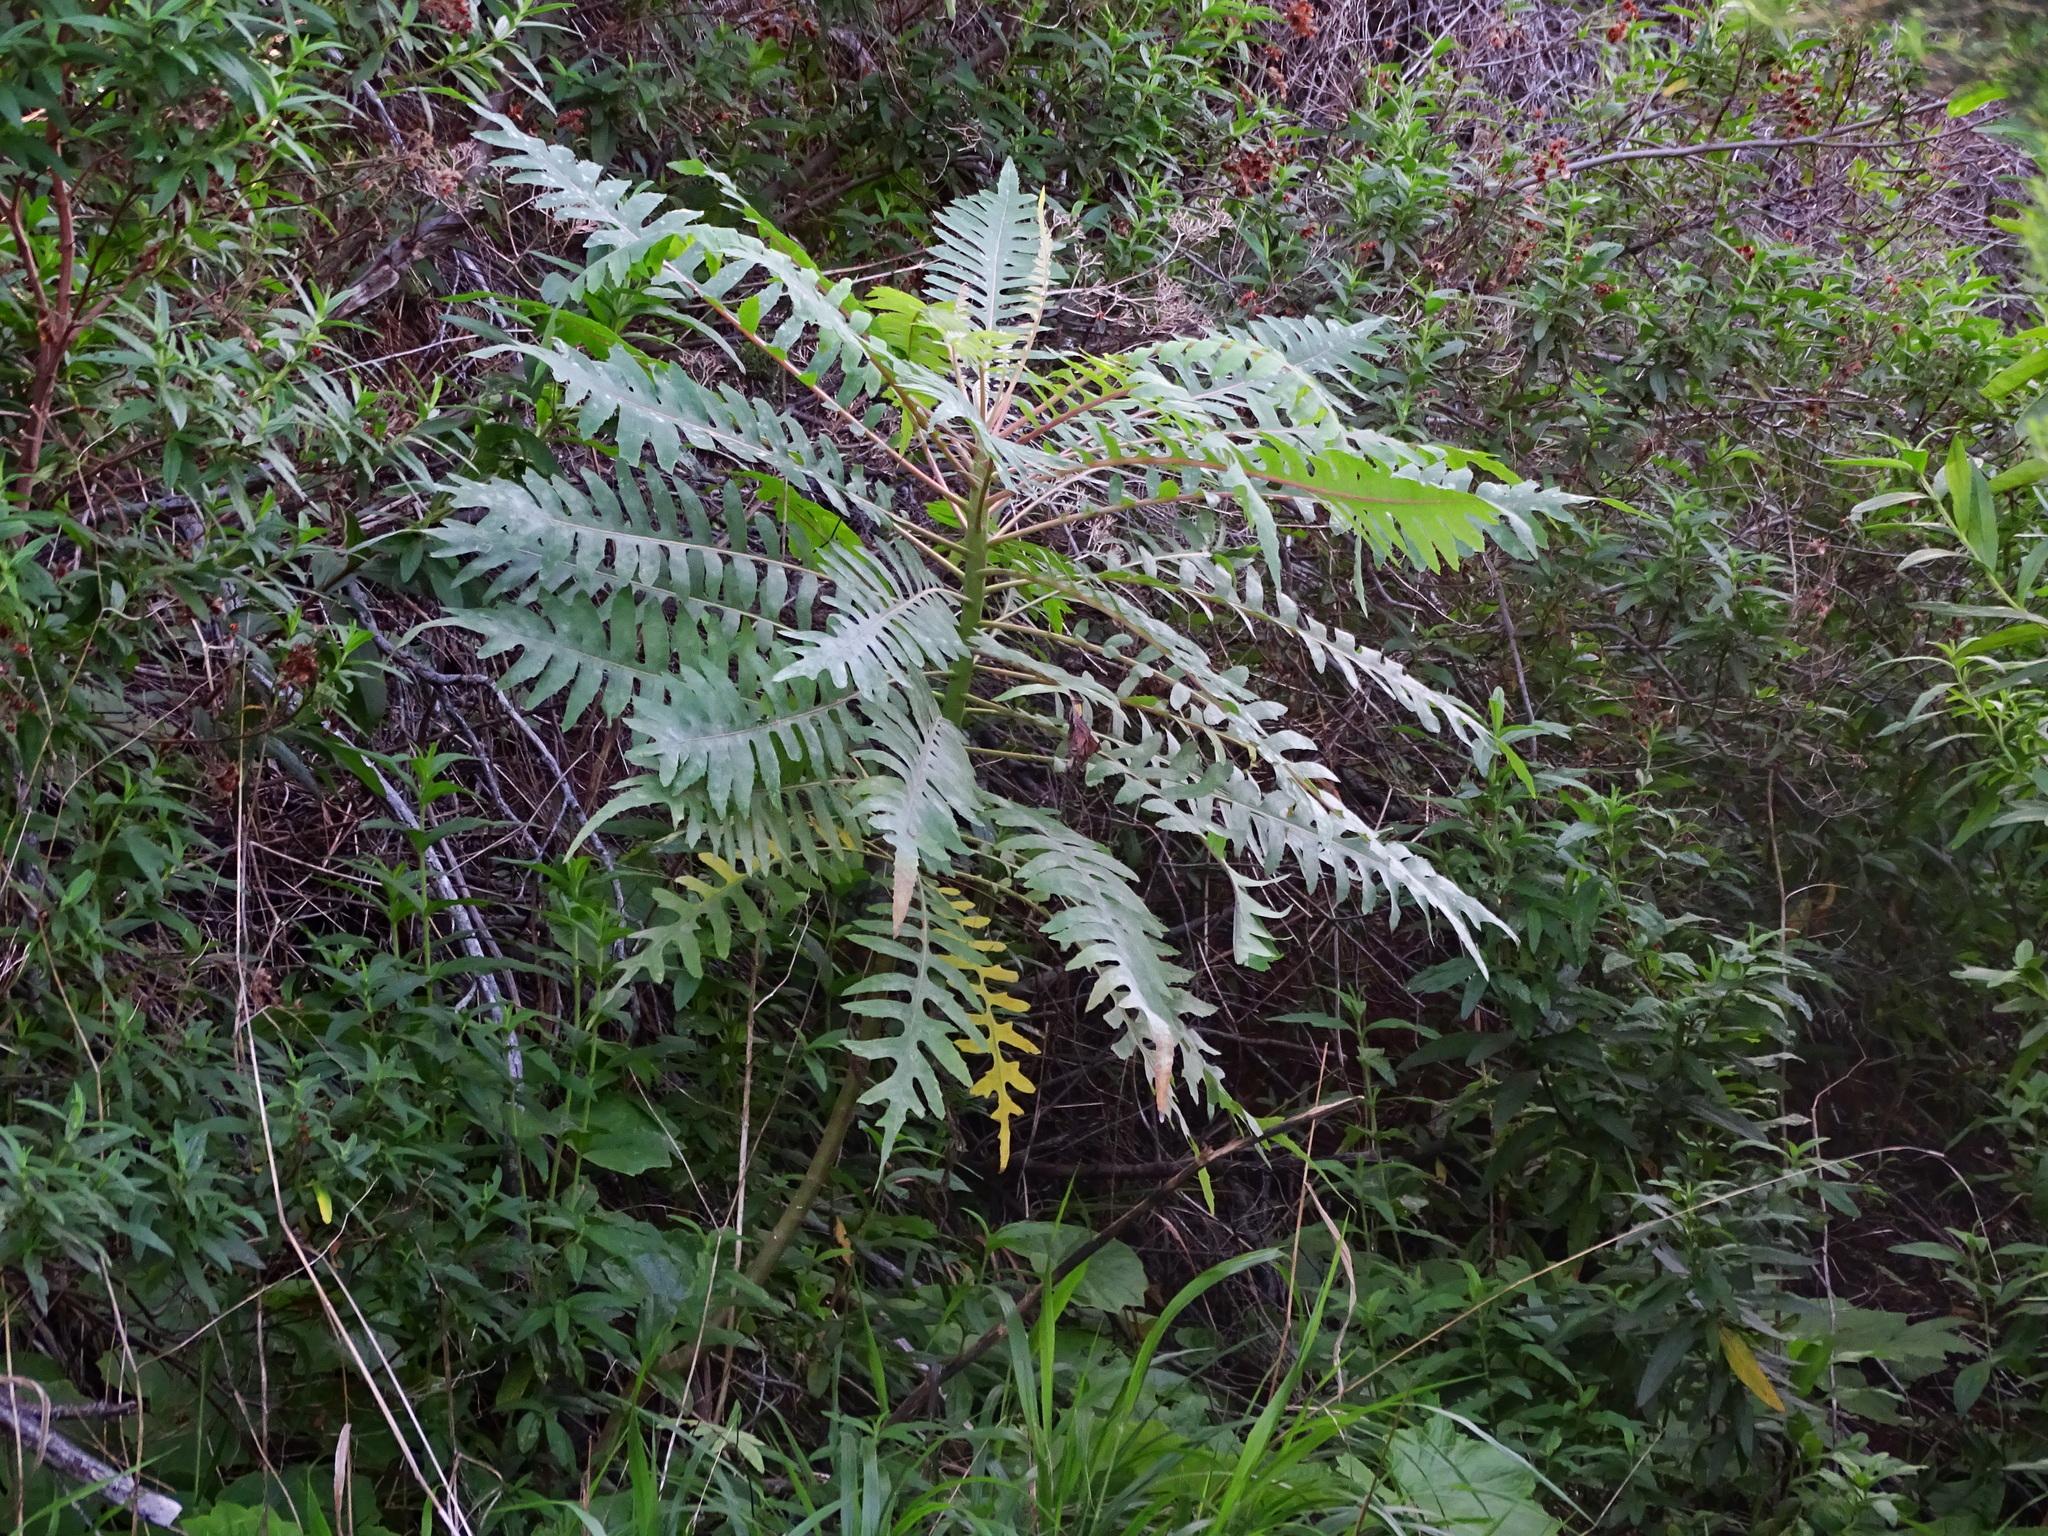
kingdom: Plantae
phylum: Tracheophyta
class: Magnoliopsida
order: Asterales
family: Asteraceae
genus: Sonchus
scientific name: Sonchus palmensis
